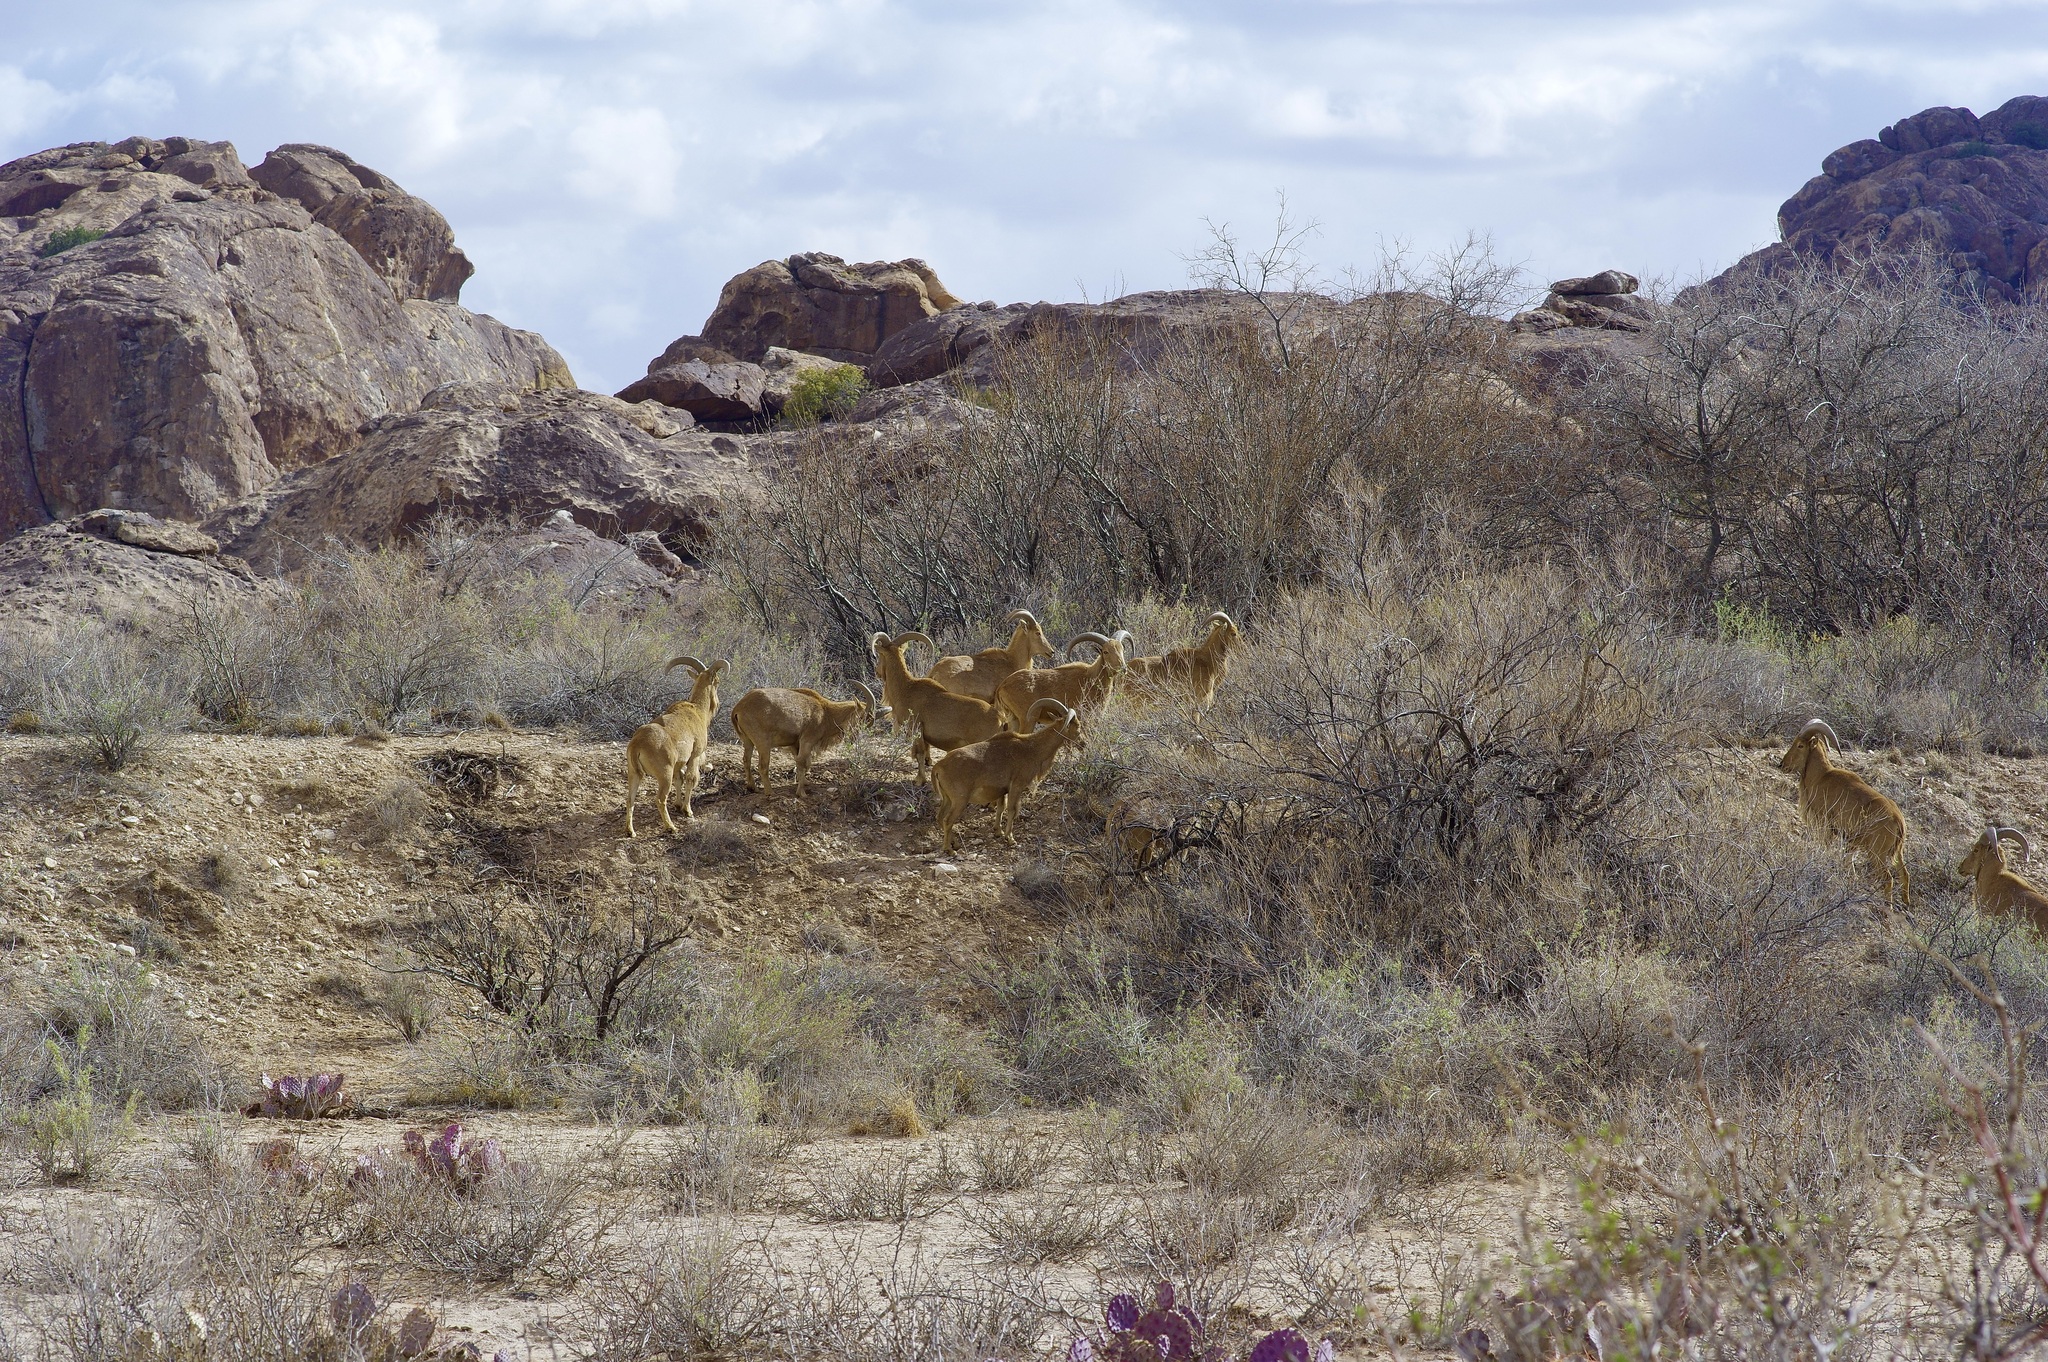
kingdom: Animalia
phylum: Chordata
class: Mammalia
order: Artiodactyla
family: Bovidae
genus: Ammotragus
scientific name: Ammotragus lervia
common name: Barbary sheep
